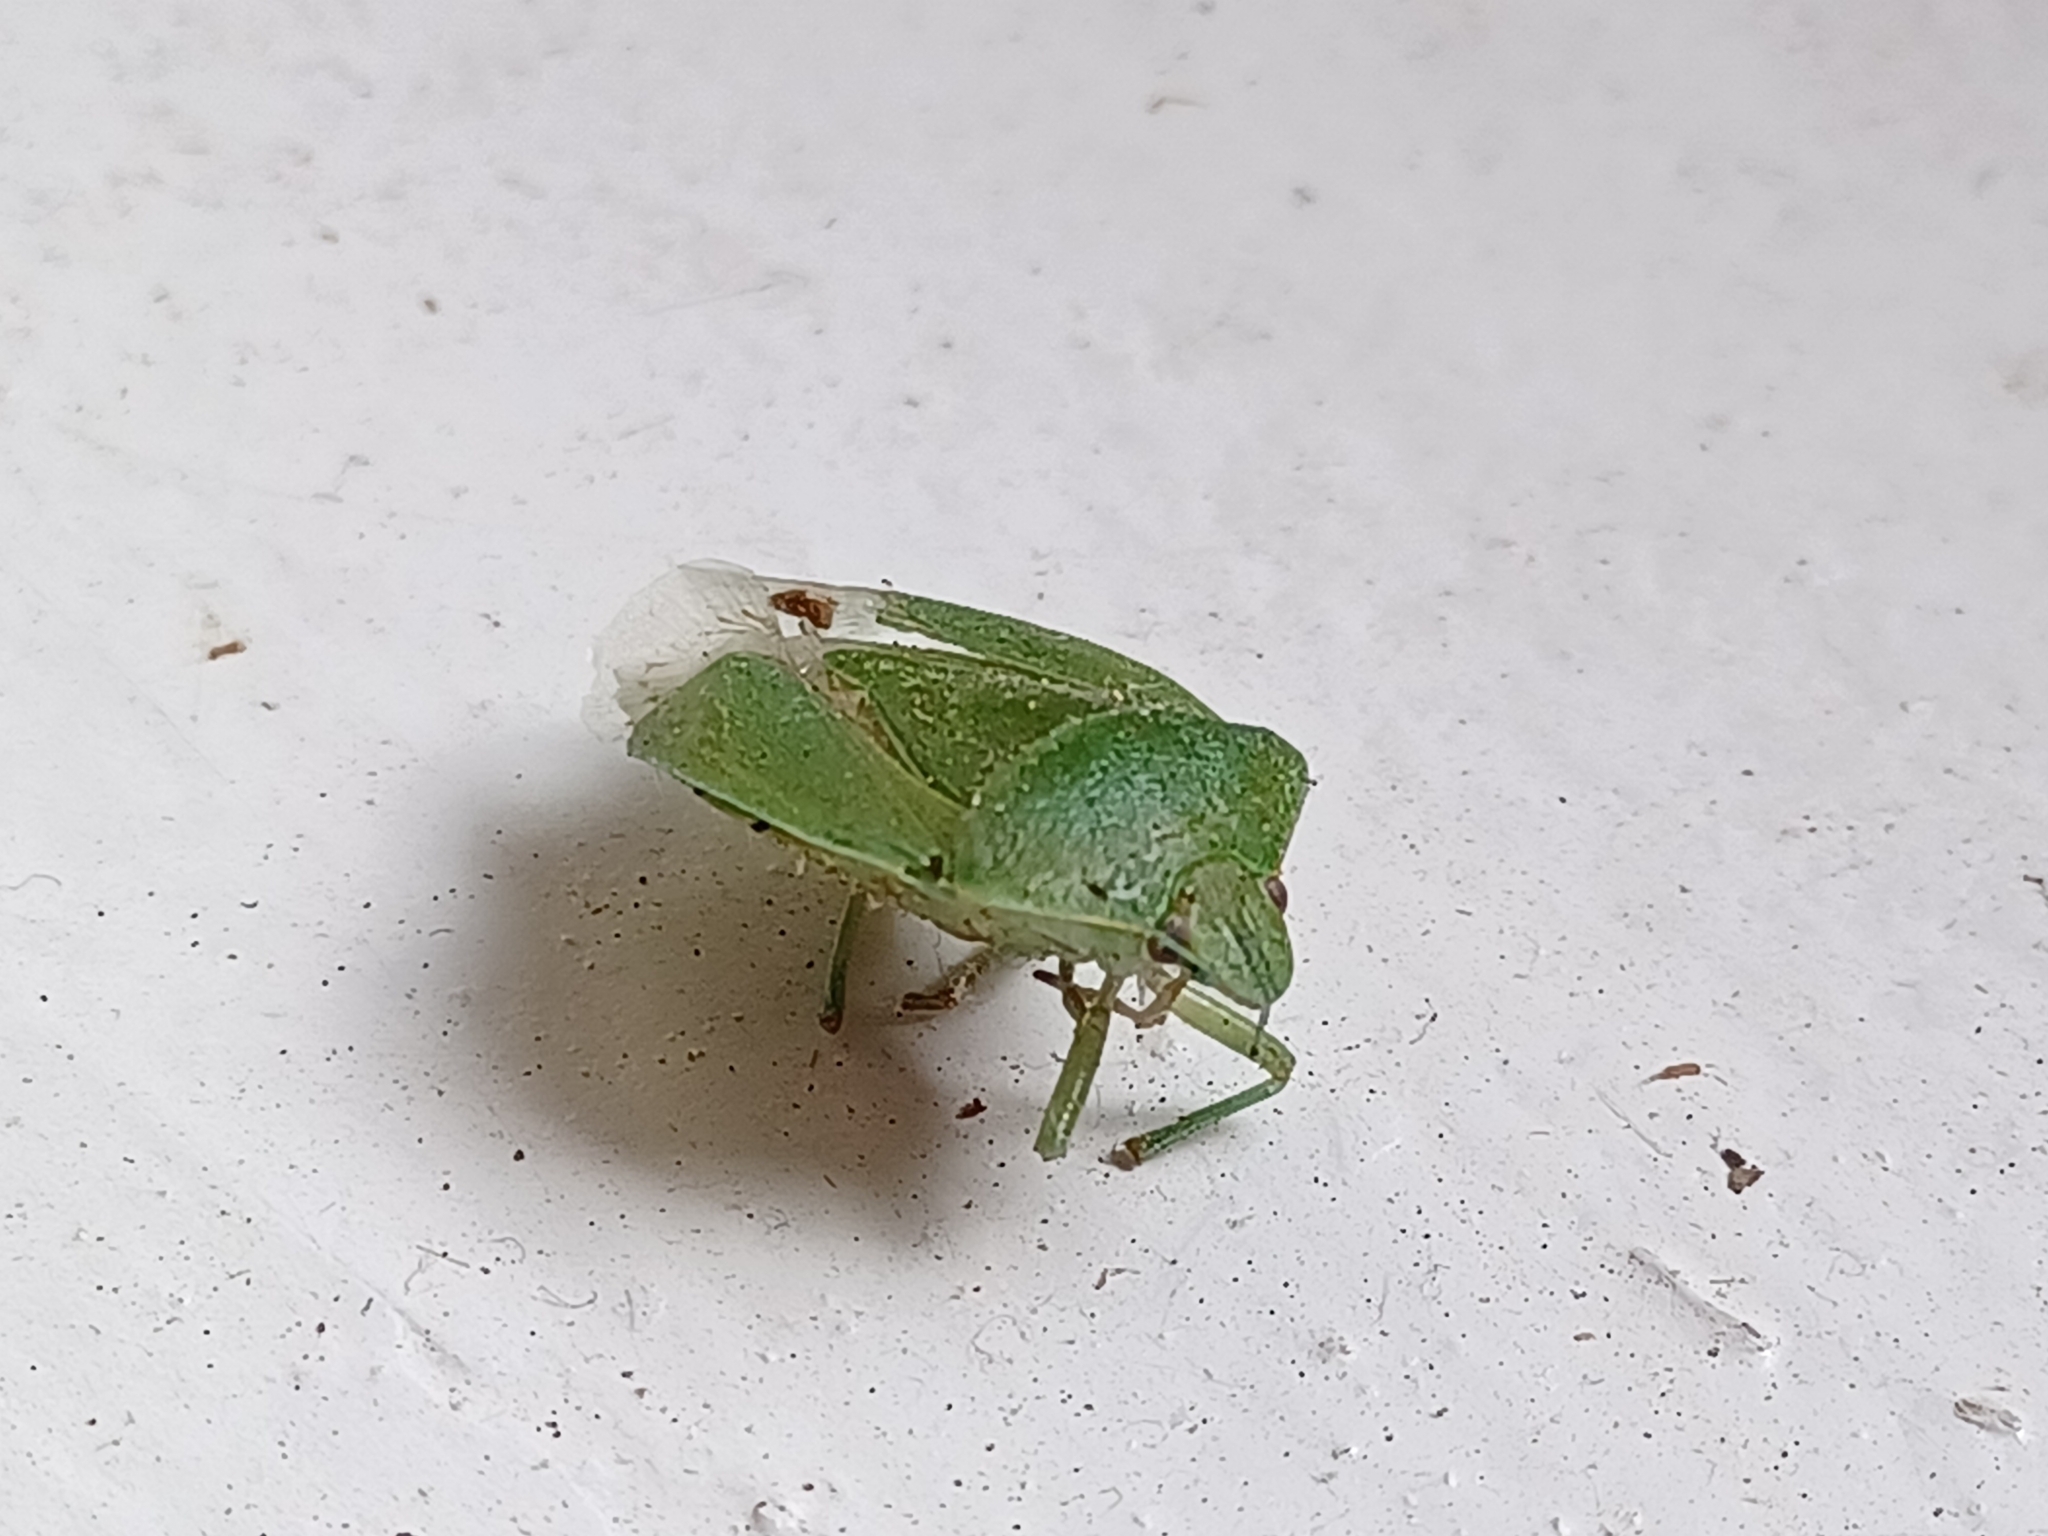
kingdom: Animalia
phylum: Arthropoda
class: Insecta
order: Hemiptera
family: Pentatomidae
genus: Chinavia
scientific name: Chinavia hilaris
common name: Green stink bug
